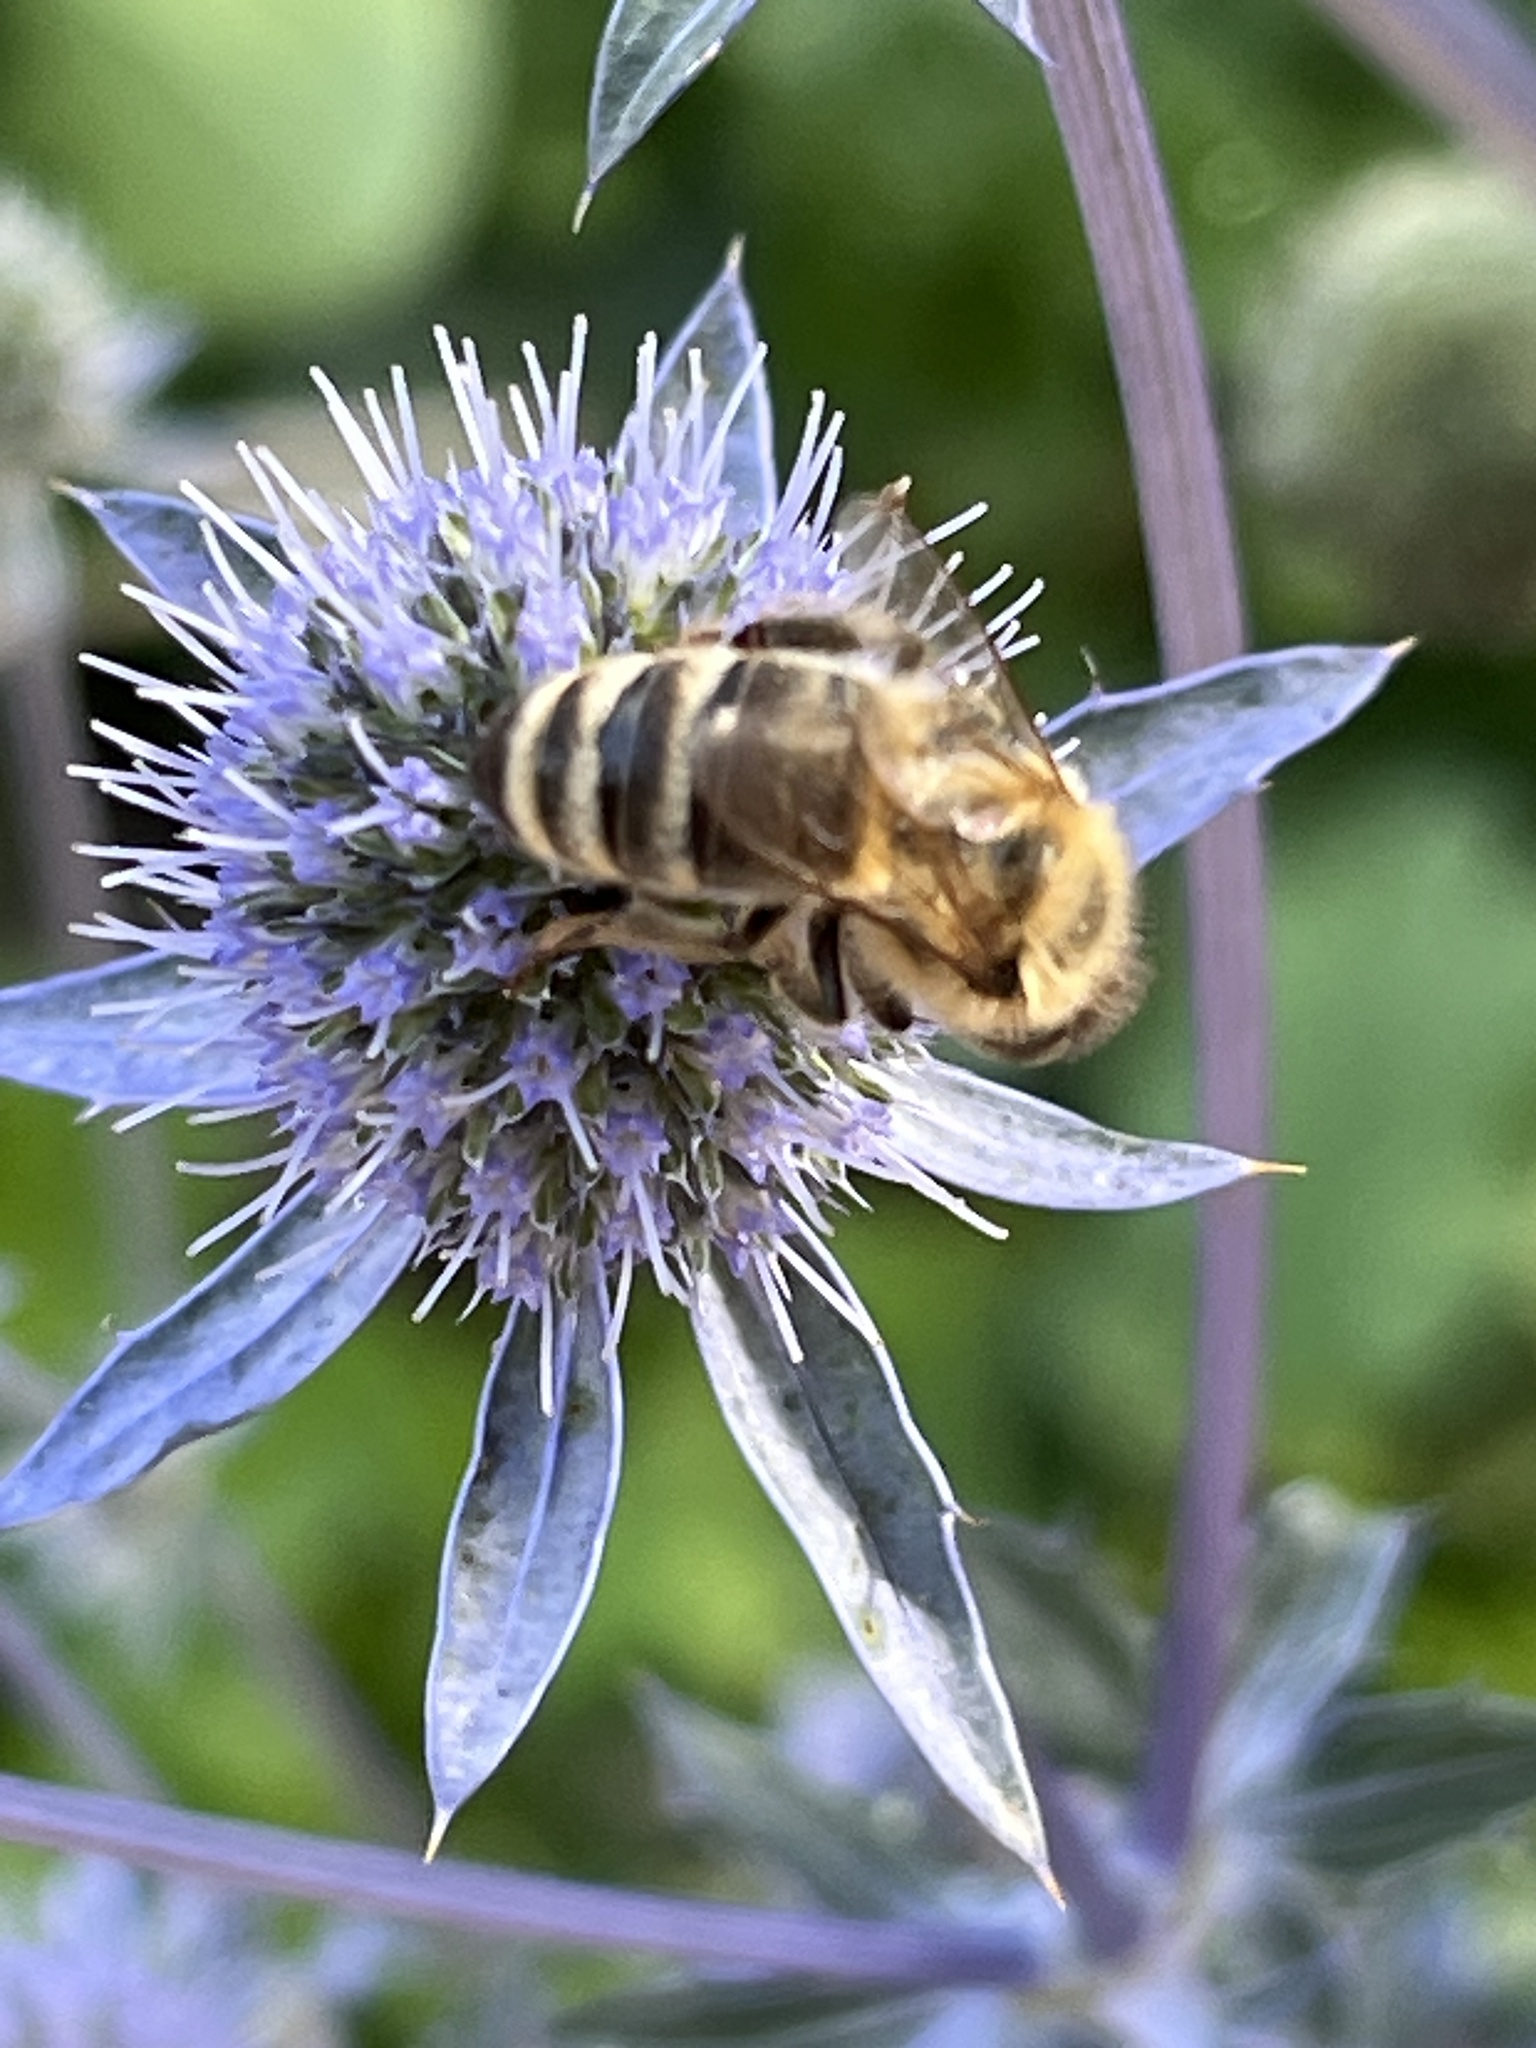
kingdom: Animalia
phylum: Arthropoda
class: Insecta
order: Hymenoptera
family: Apidae
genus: Apis
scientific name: Apis mellifera
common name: Honey bee
